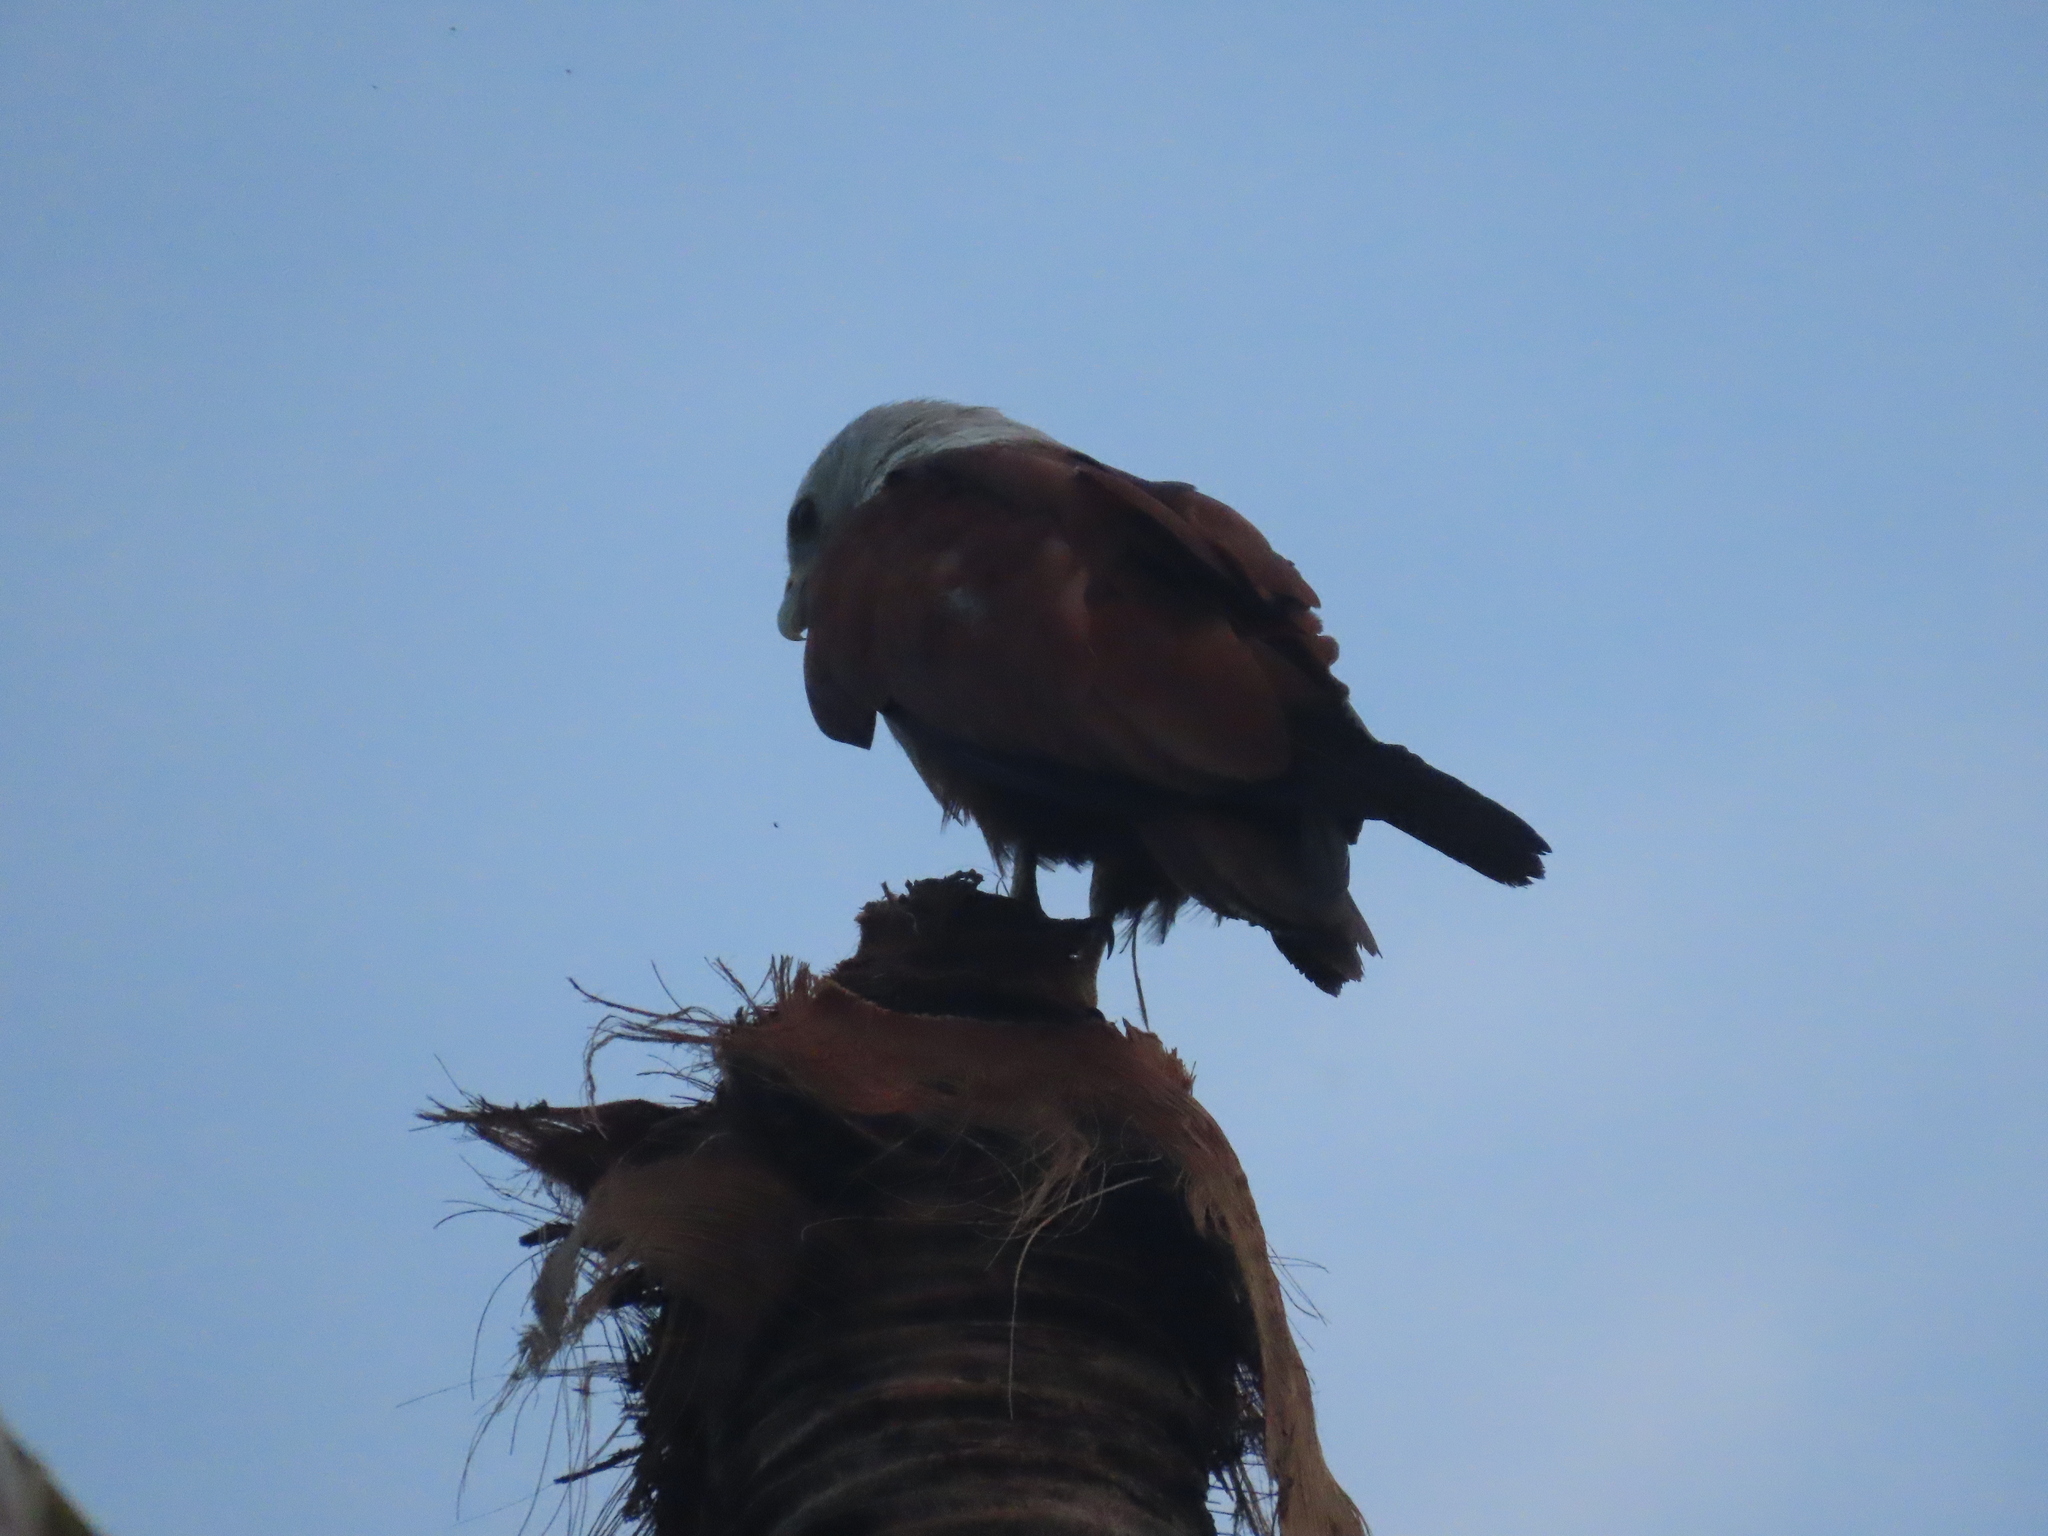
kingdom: Animalia
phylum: Chordata
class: Aves
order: Accipitriformes
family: Accipitridae
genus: Haliastur
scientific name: Haliastur indus
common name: Brahminy kite
